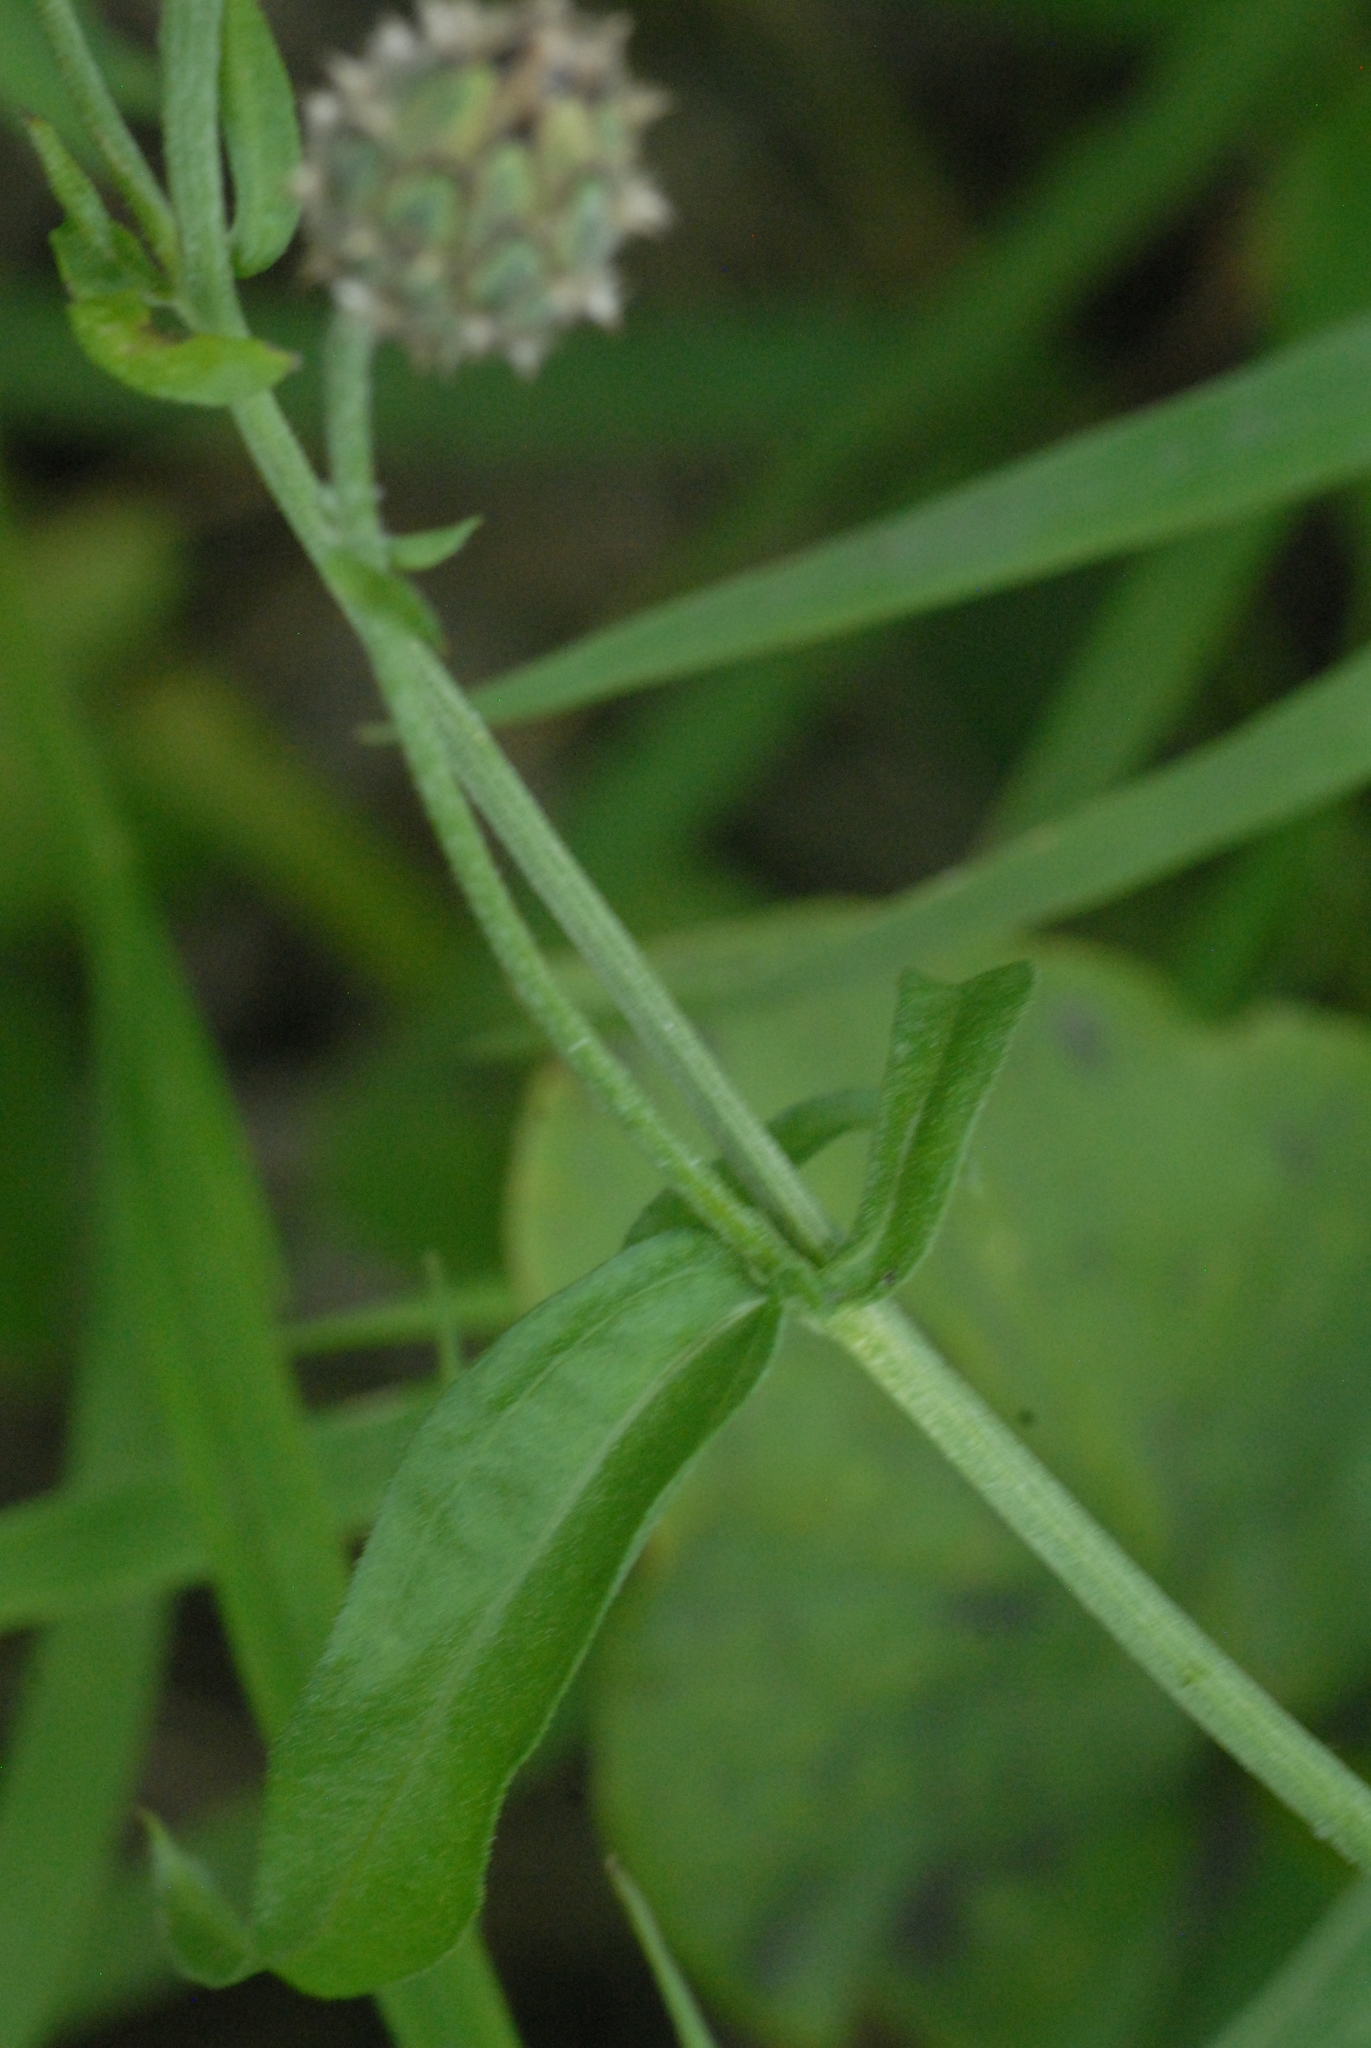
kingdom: Plantae
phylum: Tracheophyta
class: Magnoliopsida
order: Asterales
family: Asteraceae
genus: Centaurea
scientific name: Centaurea scabiosa
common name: Greater knapweed
